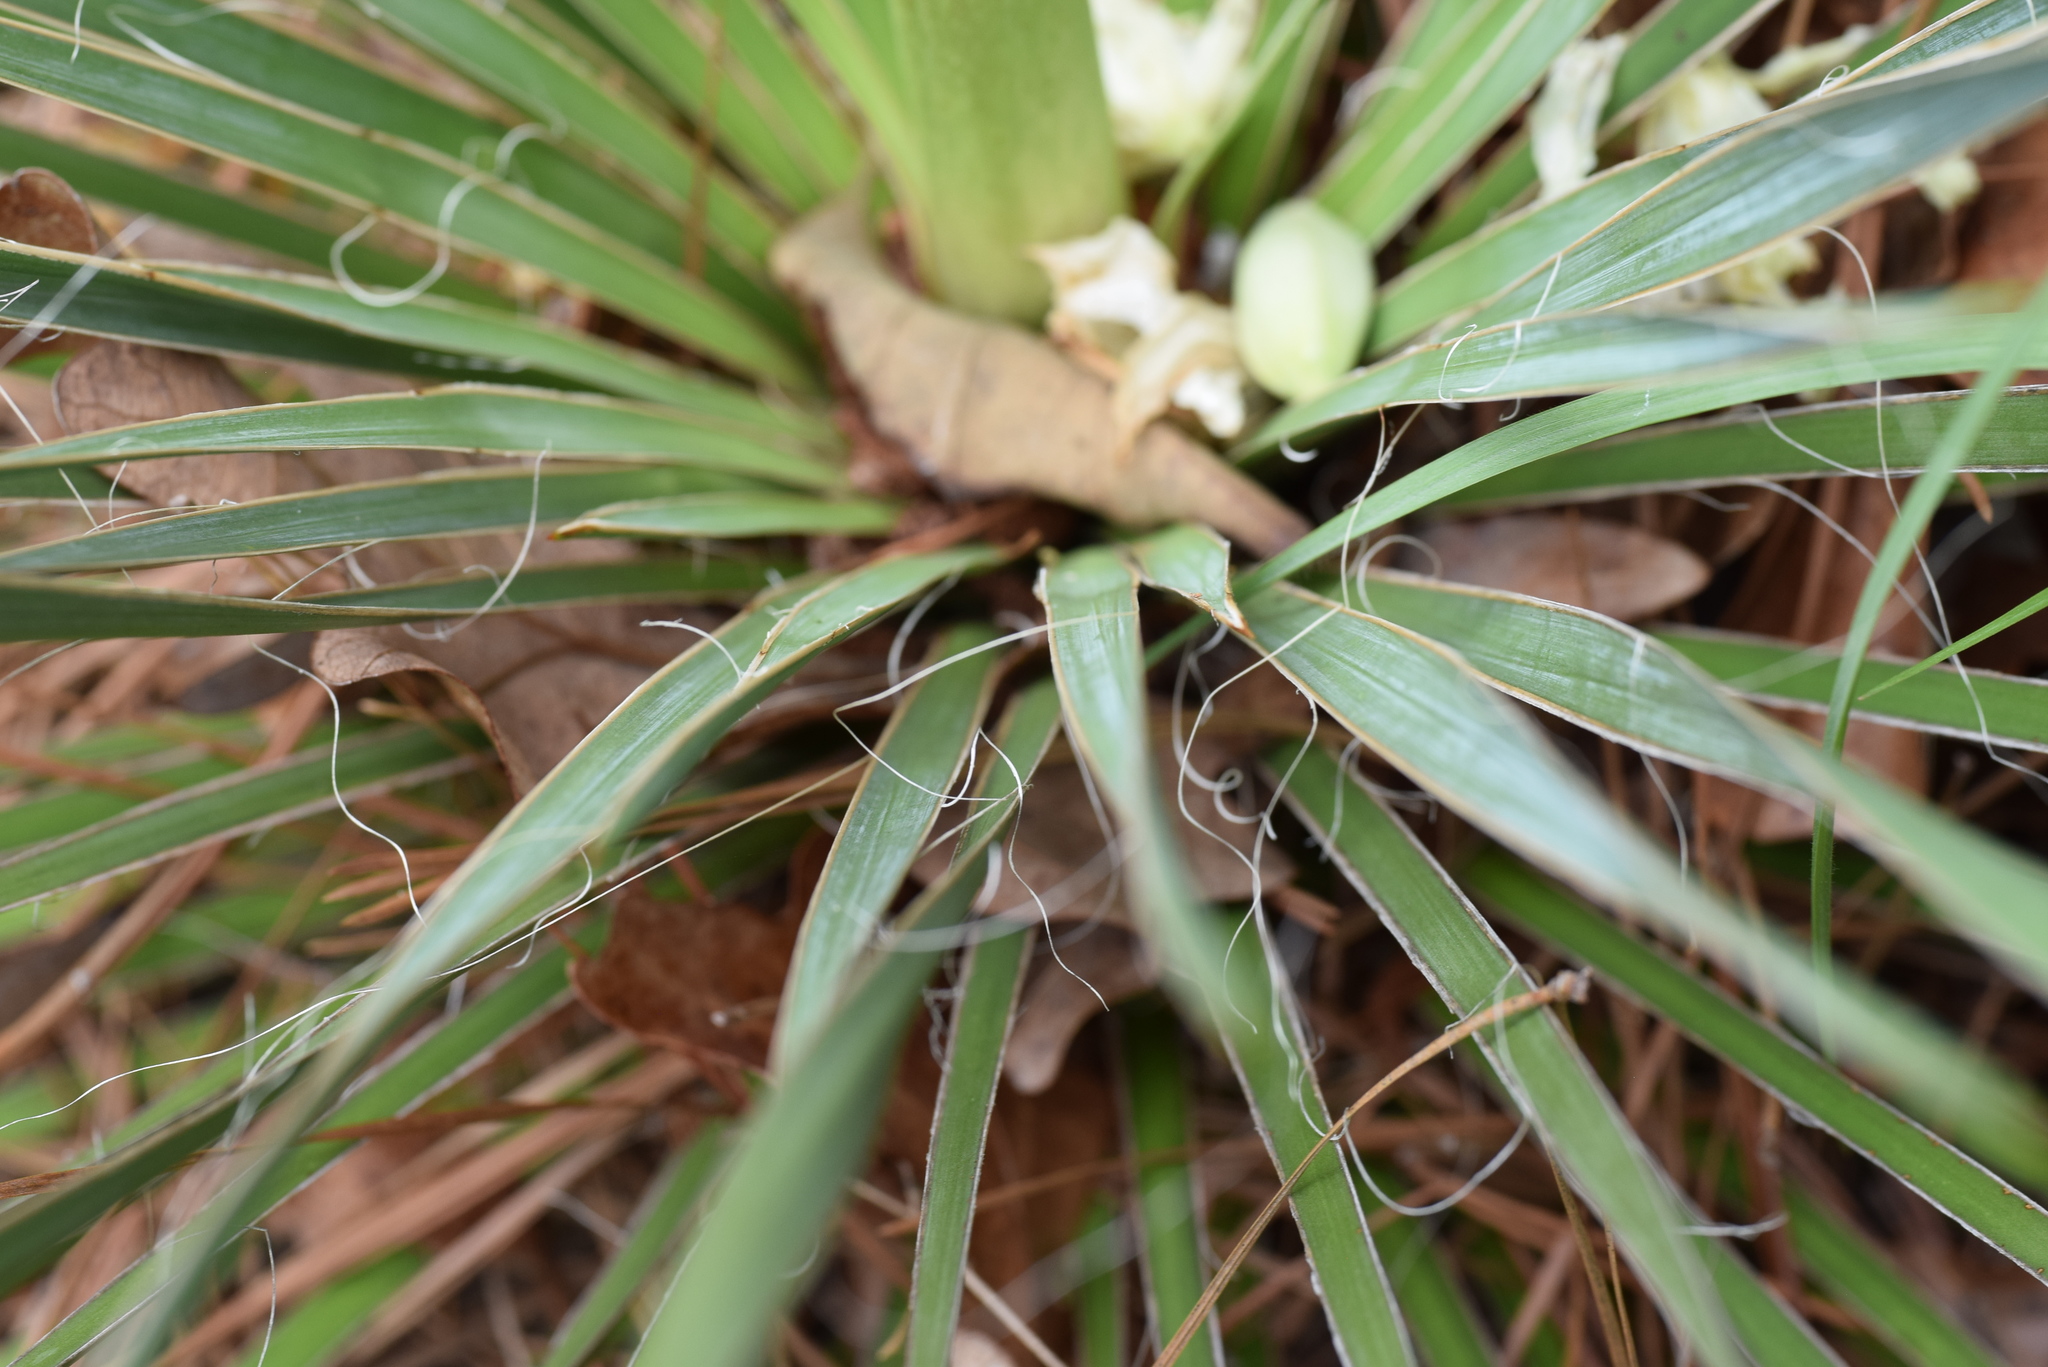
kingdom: Plantae
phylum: Tracheophyta
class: Liliopsida
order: Asparagales
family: Asparagaceae
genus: Yucca
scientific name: Yucca flaccida
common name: Adam's-needle
